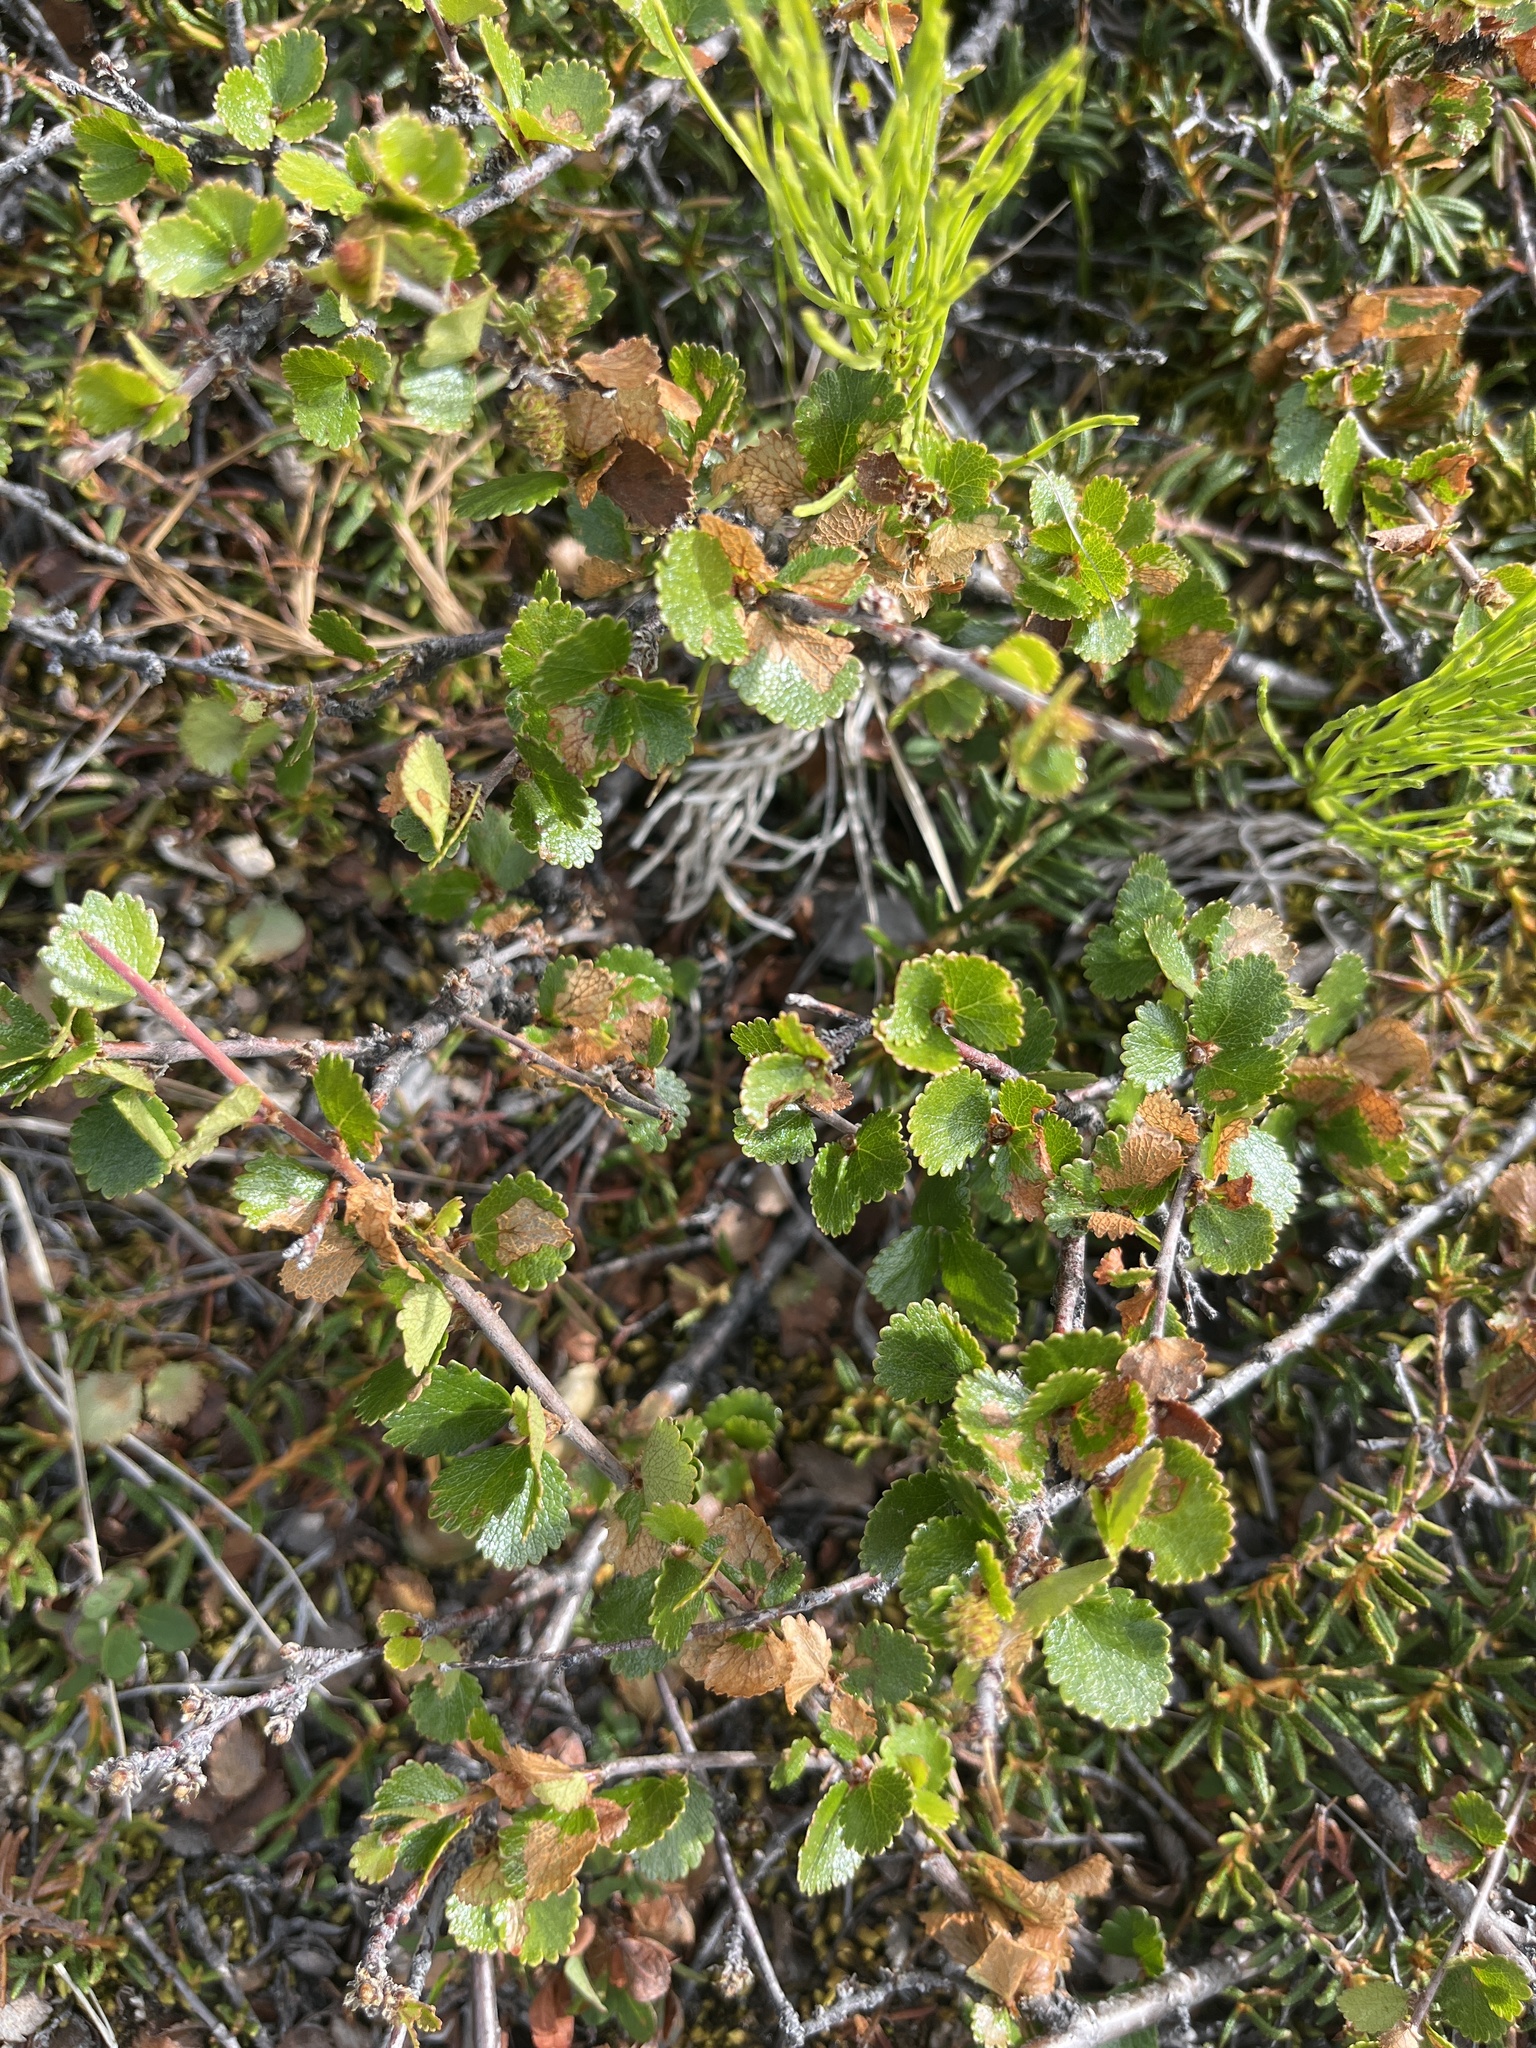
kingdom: Plantae
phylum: Tracheophyta
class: Magnoliopsida
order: Fagales
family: Betulaceae
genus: Betula
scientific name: Betula nana
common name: Arctic dwarf birch
